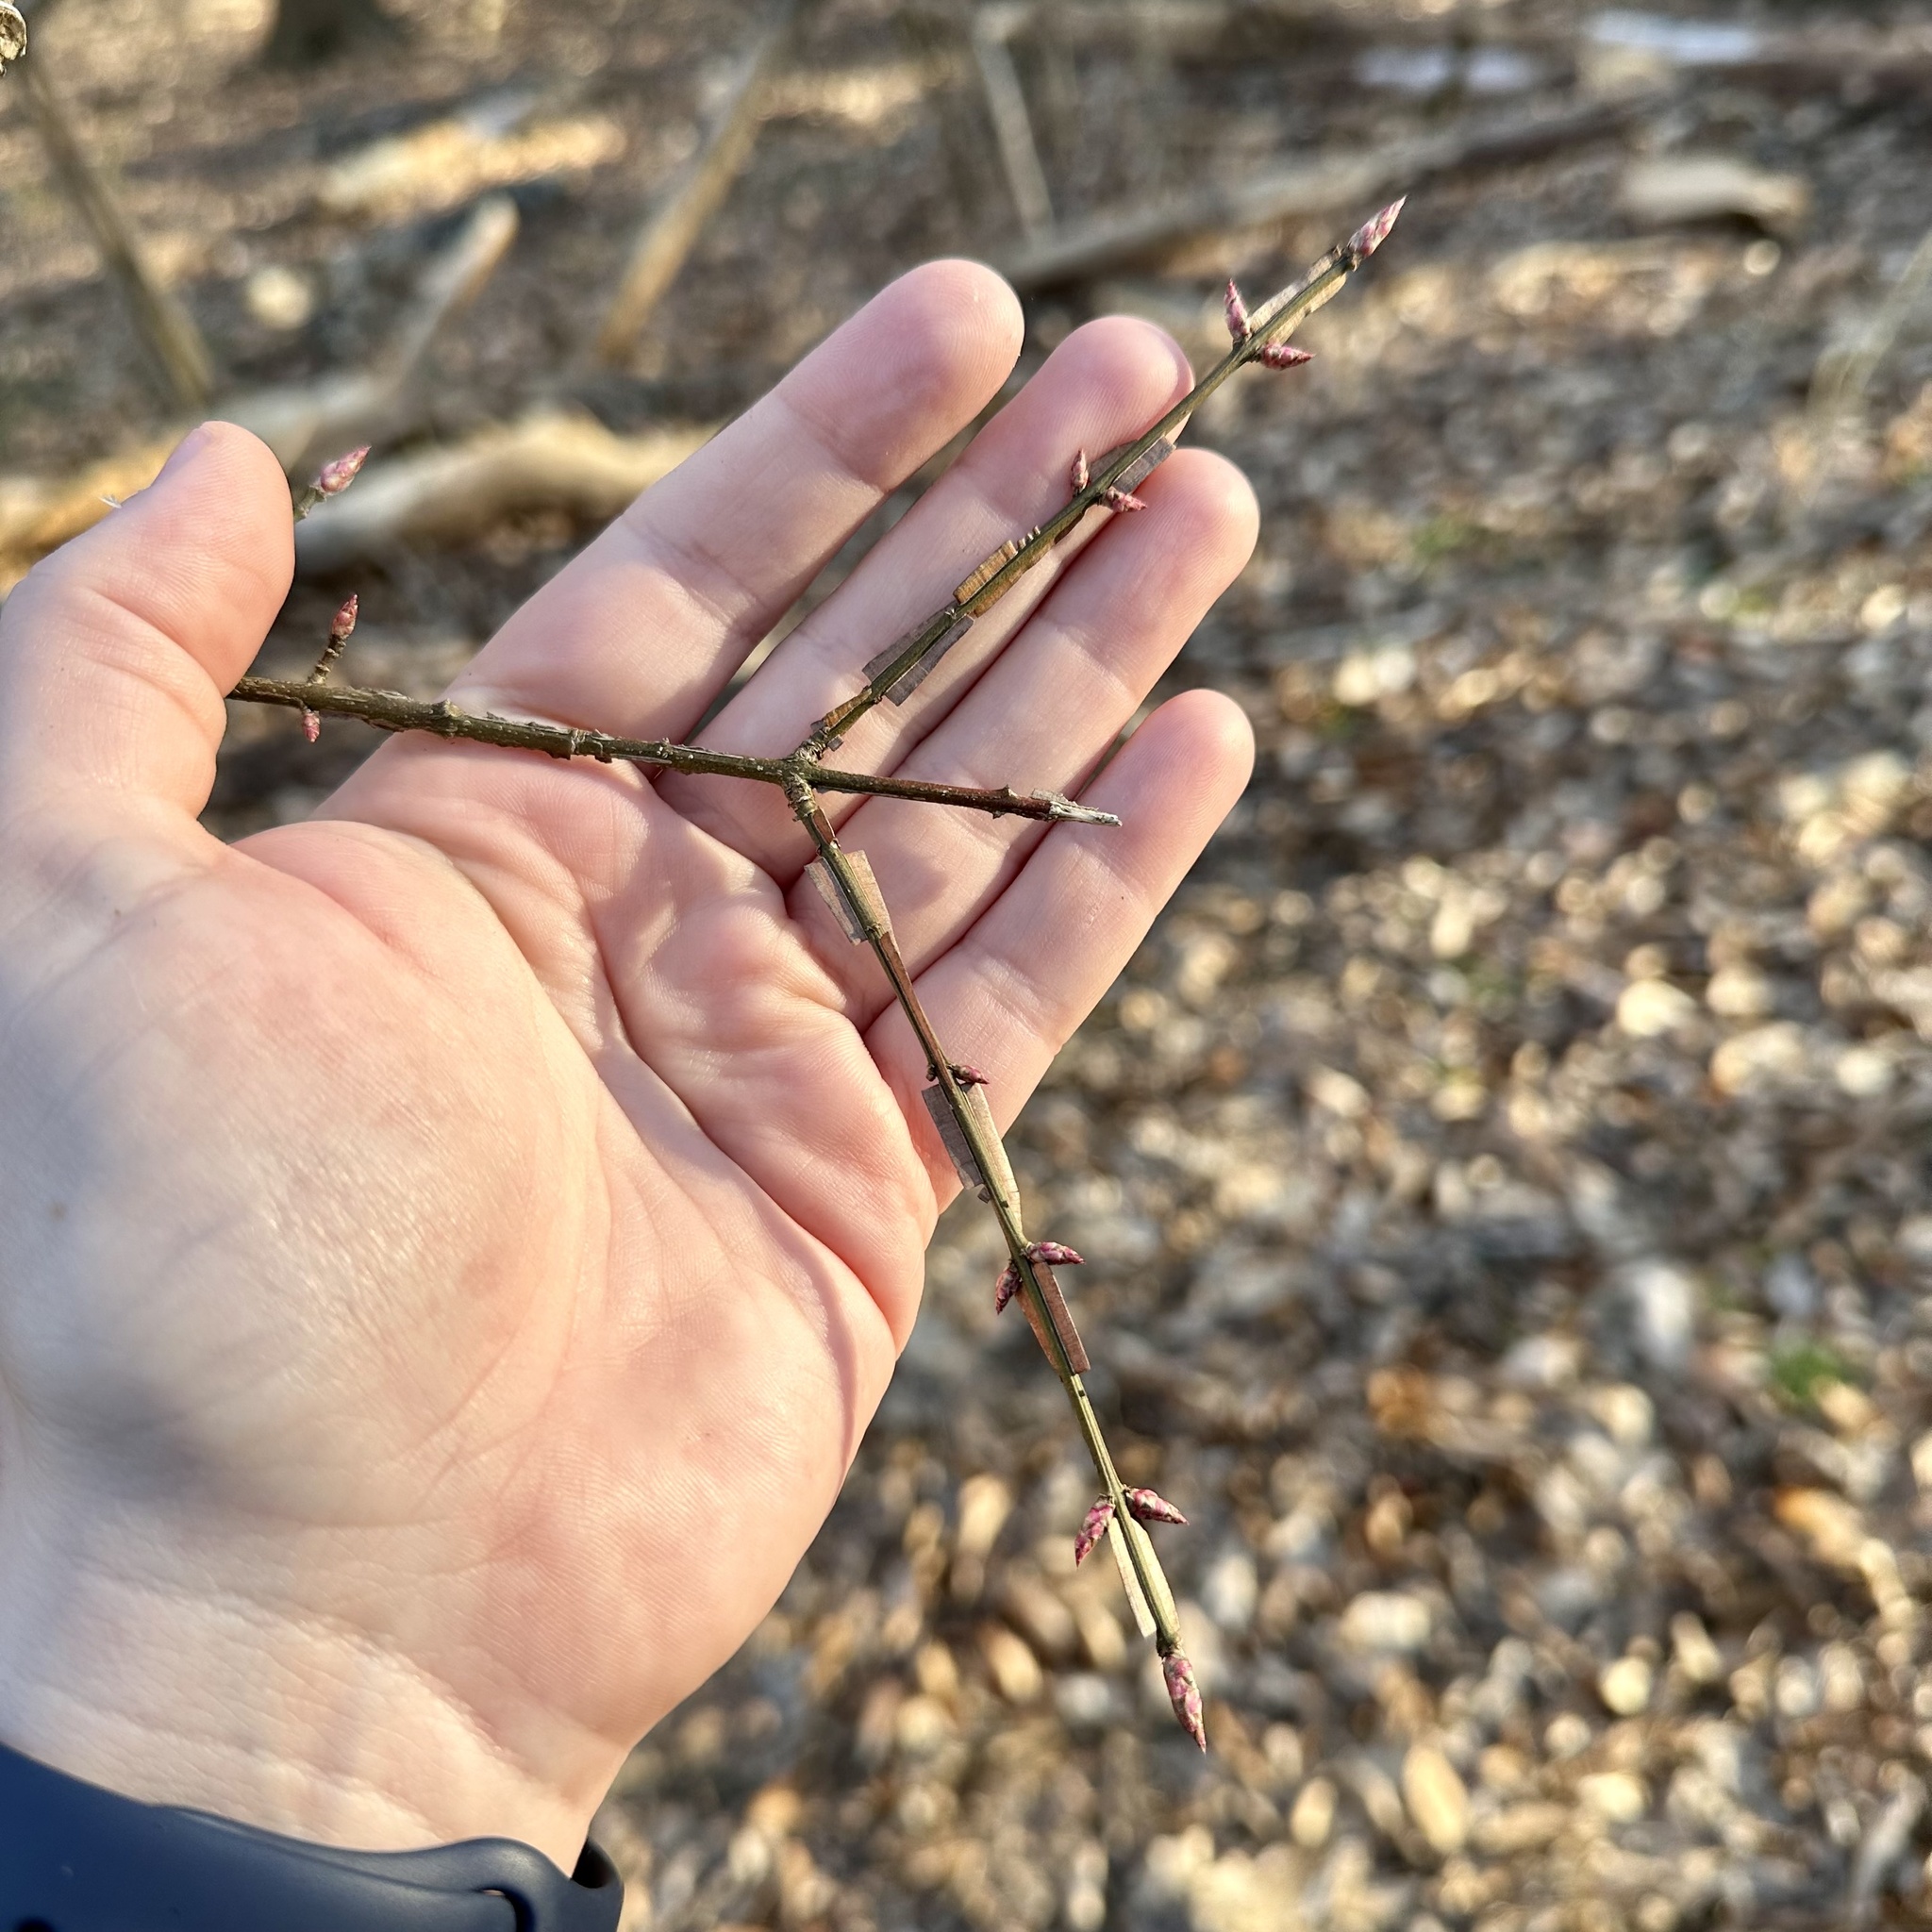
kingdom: Plantae
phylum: Tracheophyta
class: Magnoliopsida
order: Celastrales
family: Celastraceae
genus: Euonymus
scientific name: Euonymus alatus
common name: Winged euonymus
